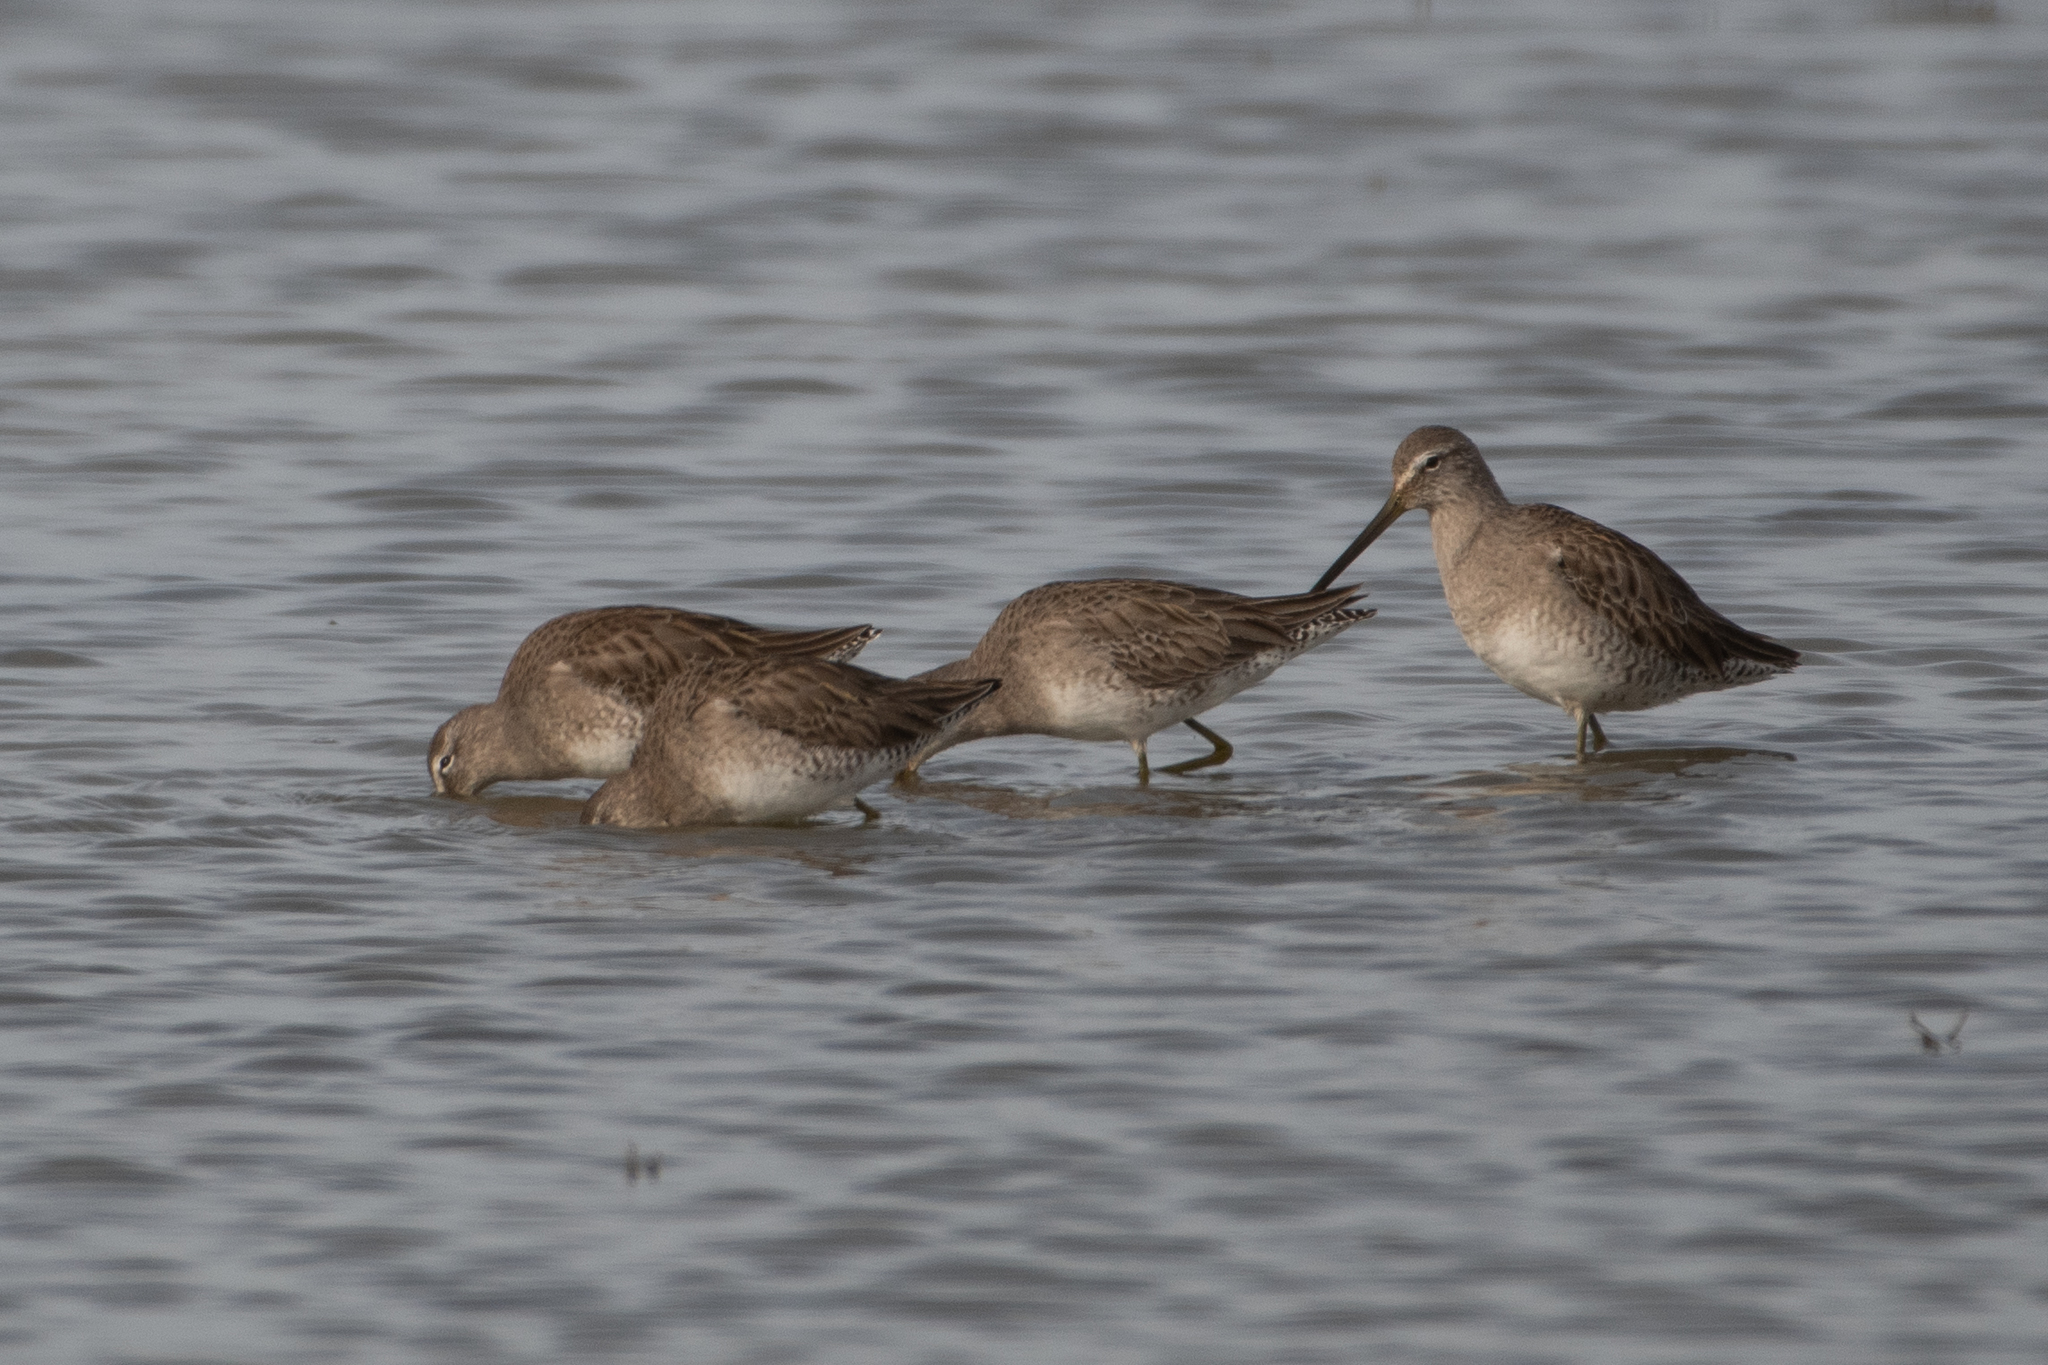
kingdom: Animalia
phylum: Chordata
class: Aves
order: Charadriiformes
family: Scolopacidae
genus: Limnodromus
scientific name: Limnodromus scolopaceus
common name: Long-billed dowitcher
